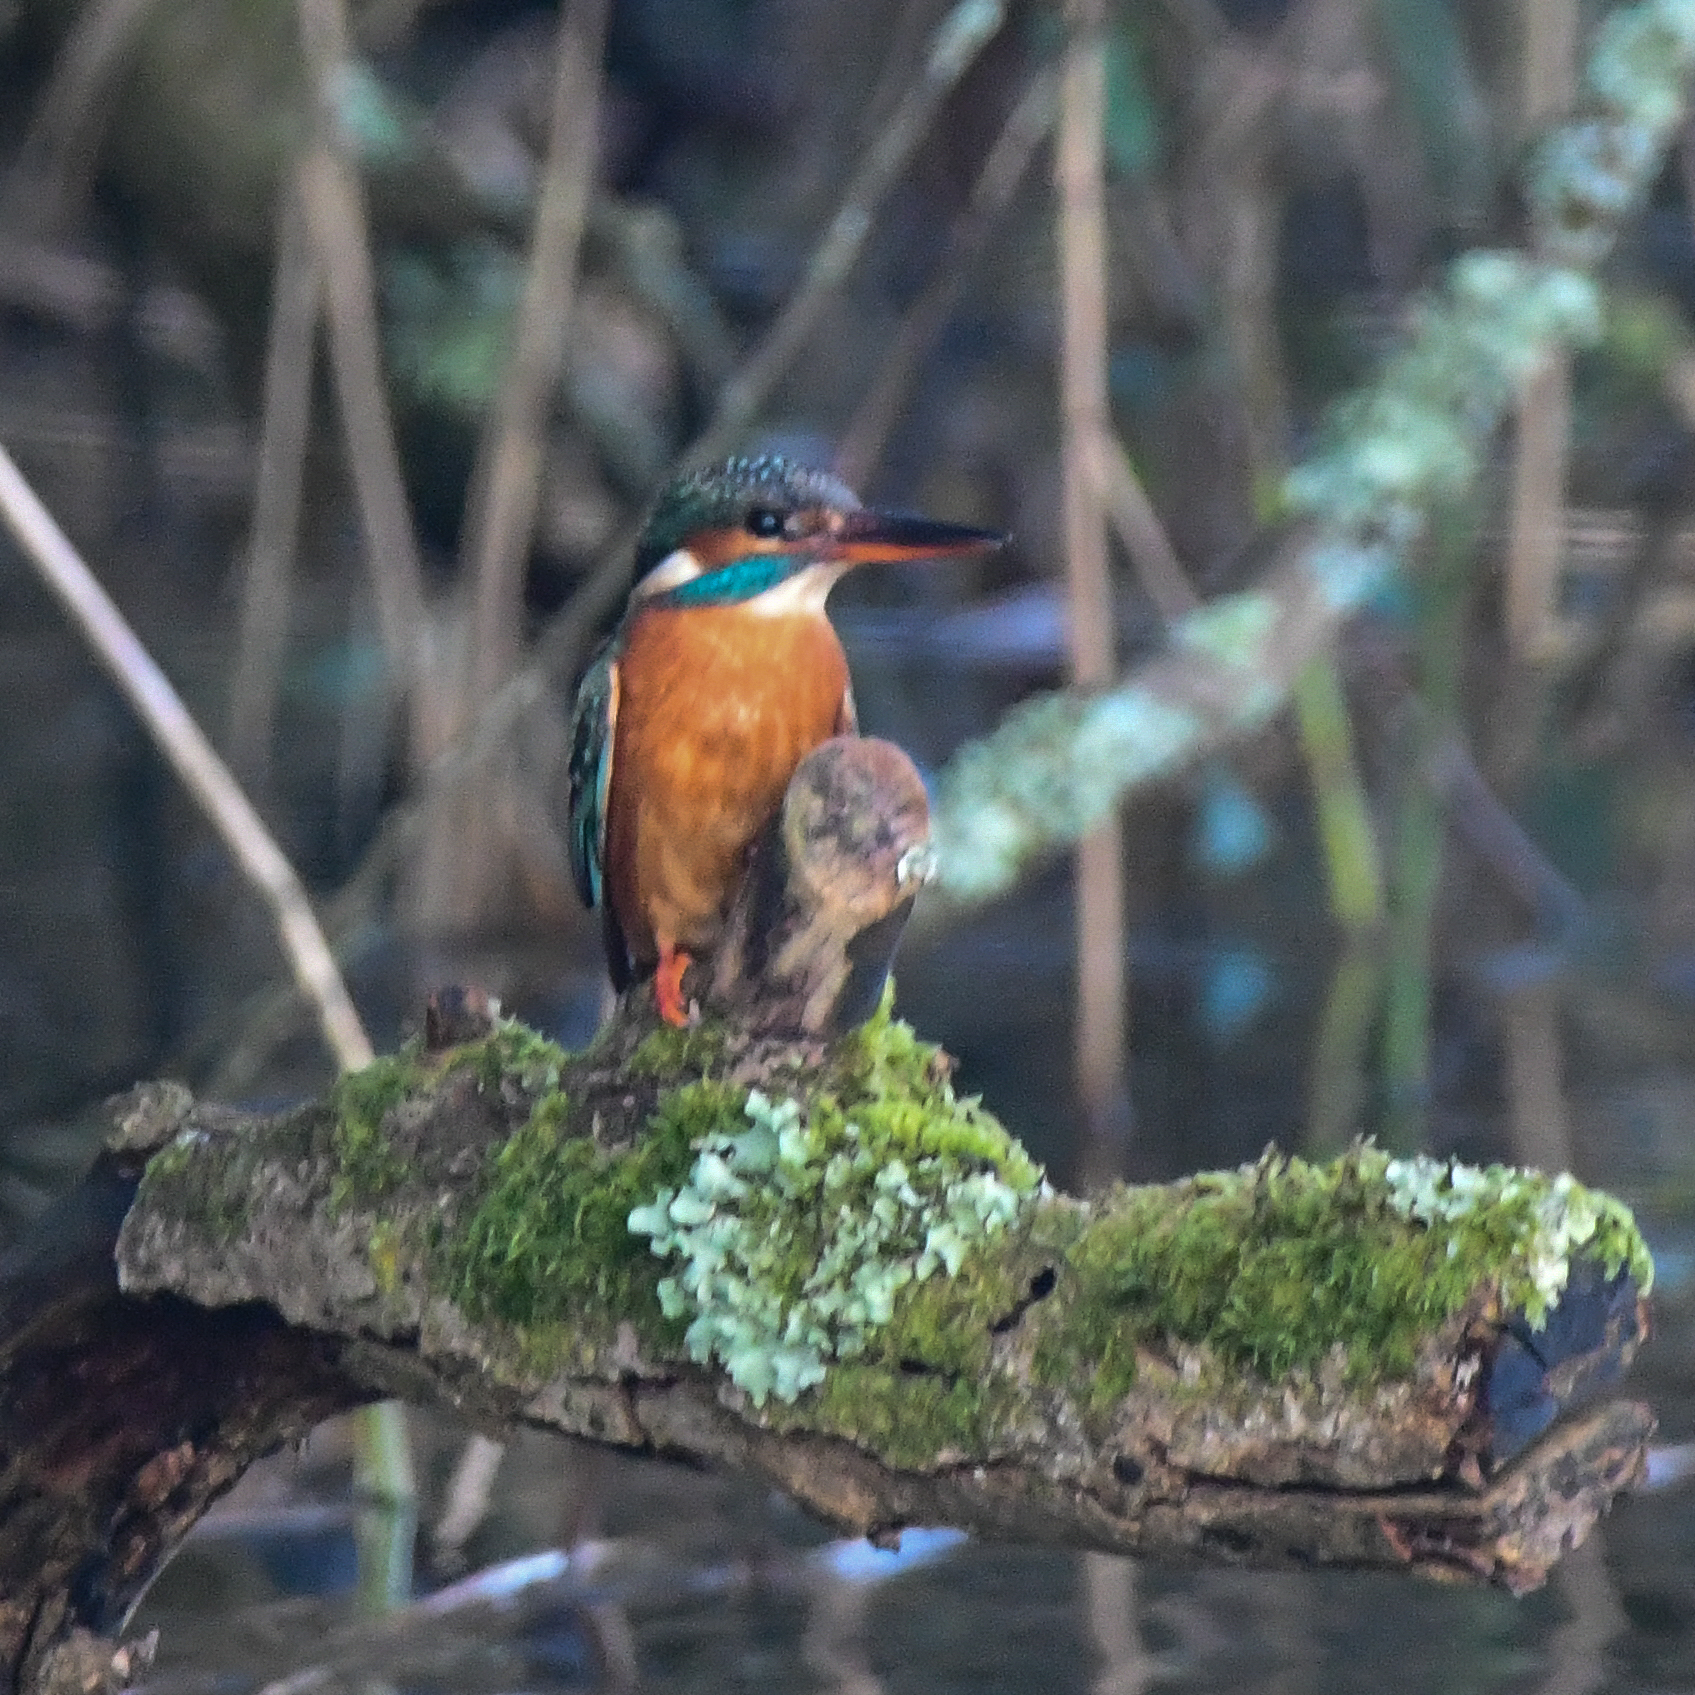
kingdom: Animalia
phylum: Chordata
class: Aves
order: Coraciiformes
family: Alcedinidae
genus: Alcedo
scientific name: Alcedo atthis
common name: Common kingfisher
